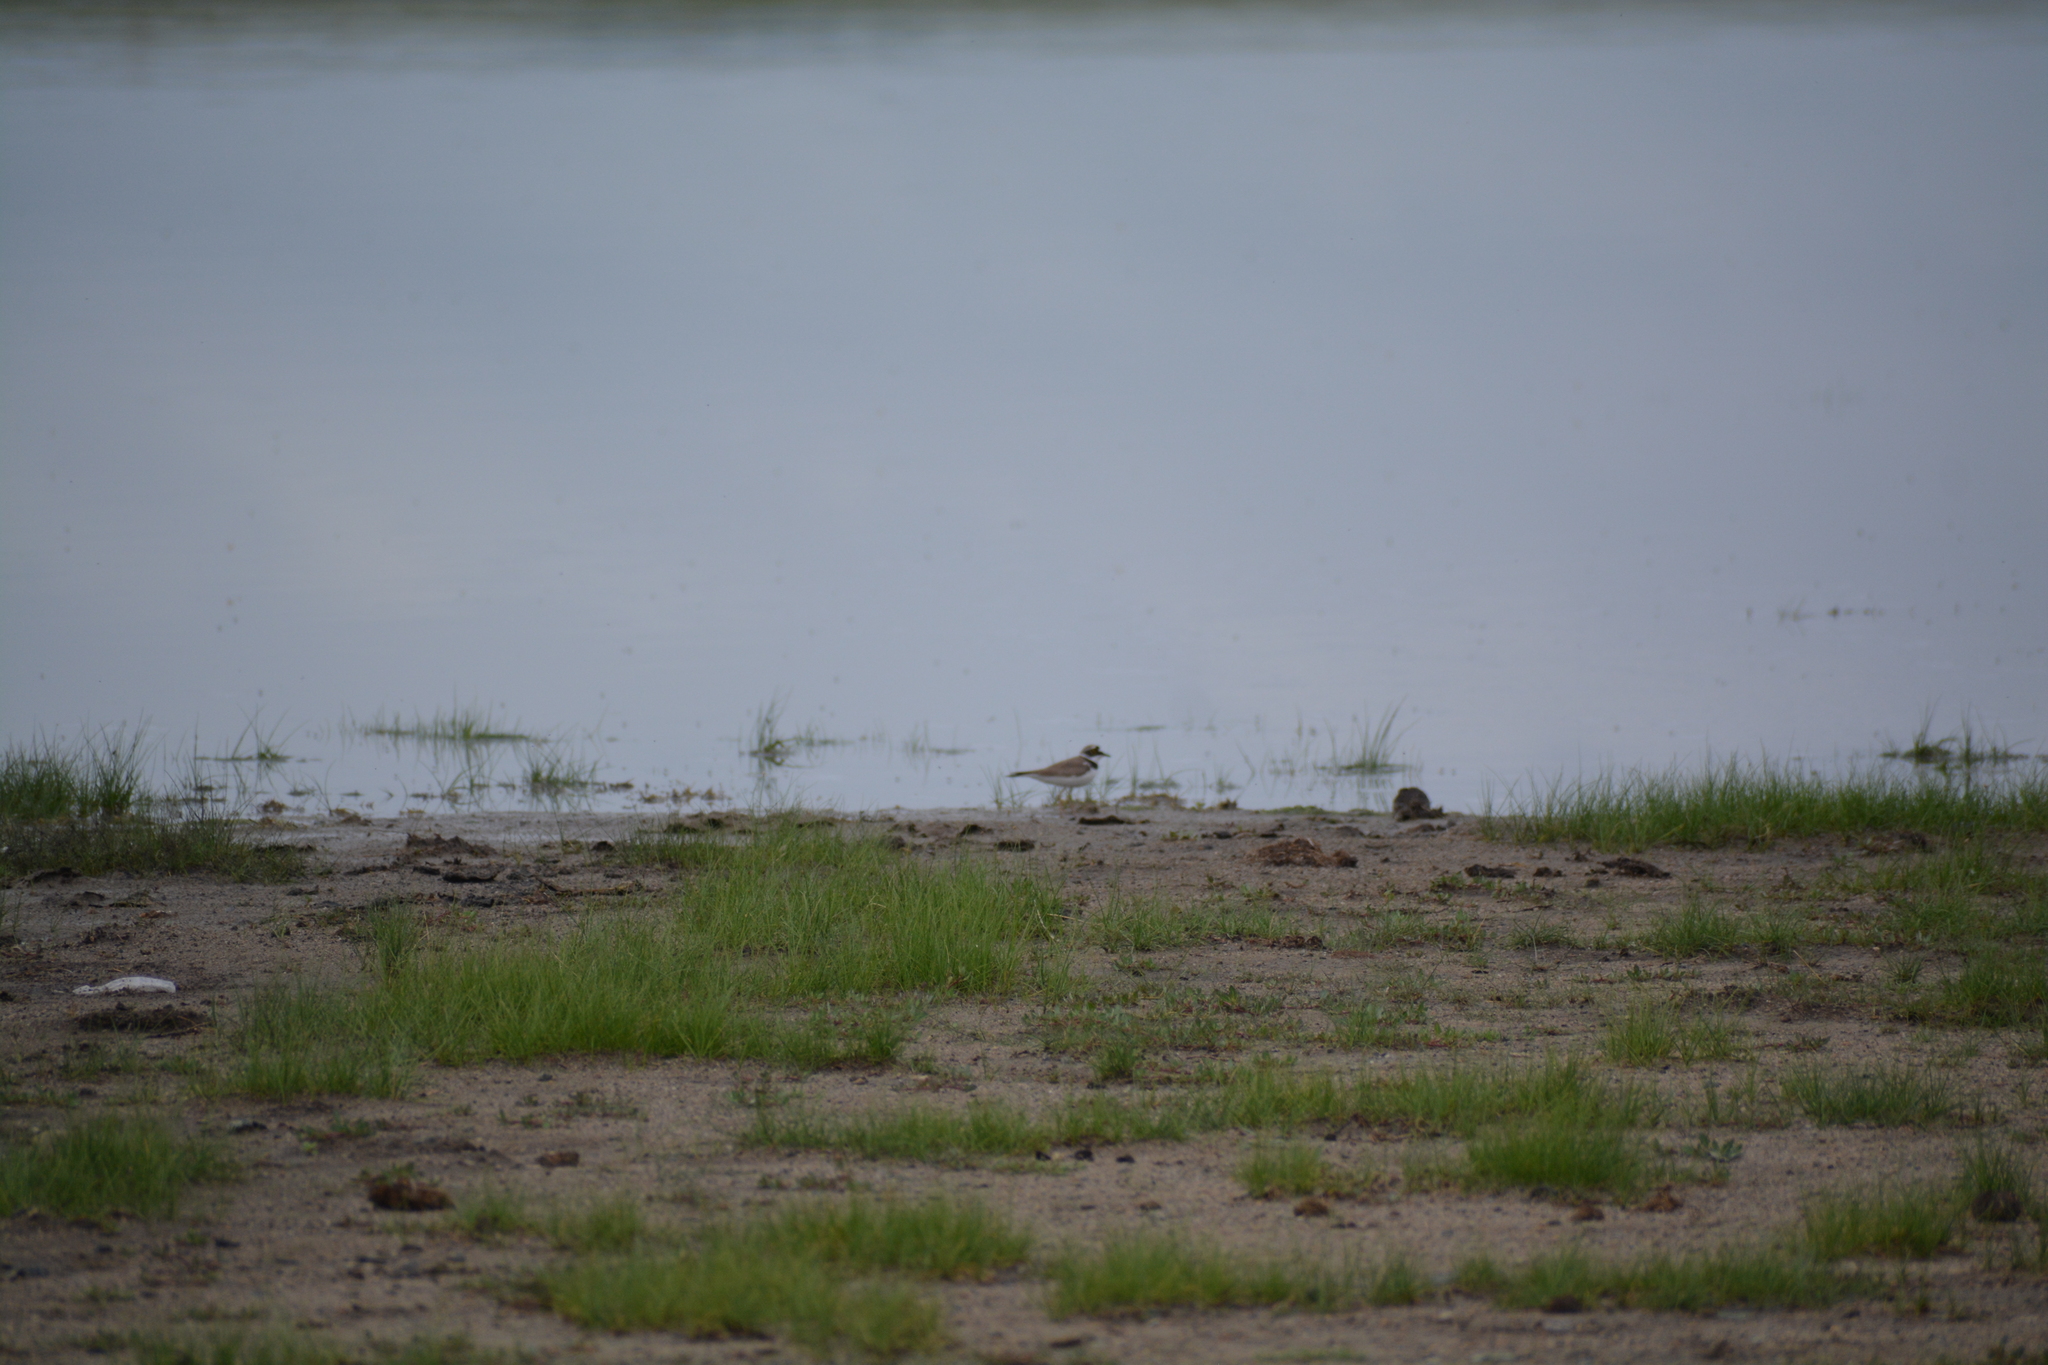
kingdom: Animalia
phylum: Chordata
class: Aves
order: Charadriiformes
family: Charadriidae
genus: Charadrius
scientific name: Charadrius dubius
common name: Little ringed plover
